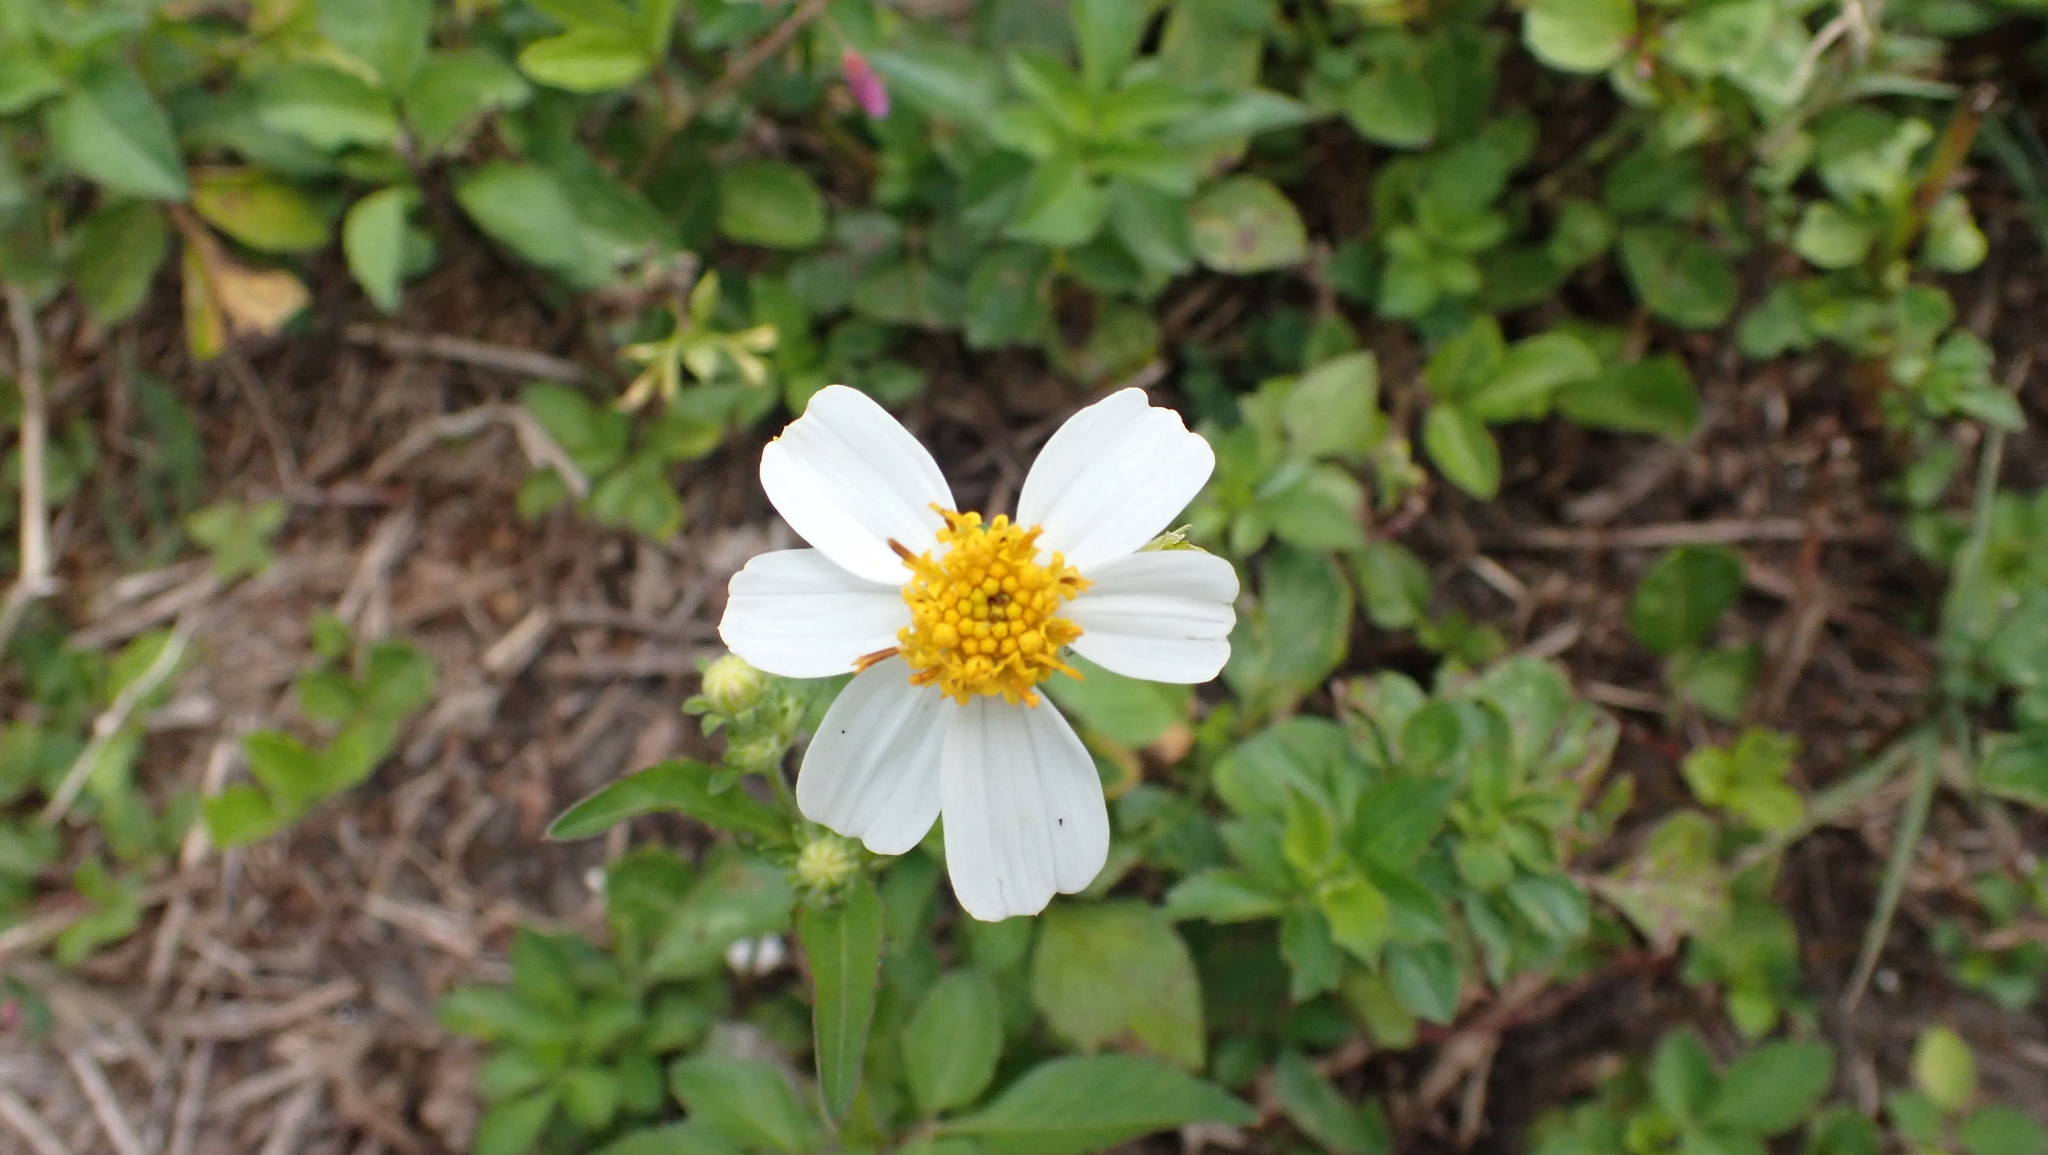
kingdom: Plantae
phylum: Tracheophyta
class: Magnoliopsida
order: Asterales
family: Asteraceae
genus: Bidens
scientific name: Bidens alba
